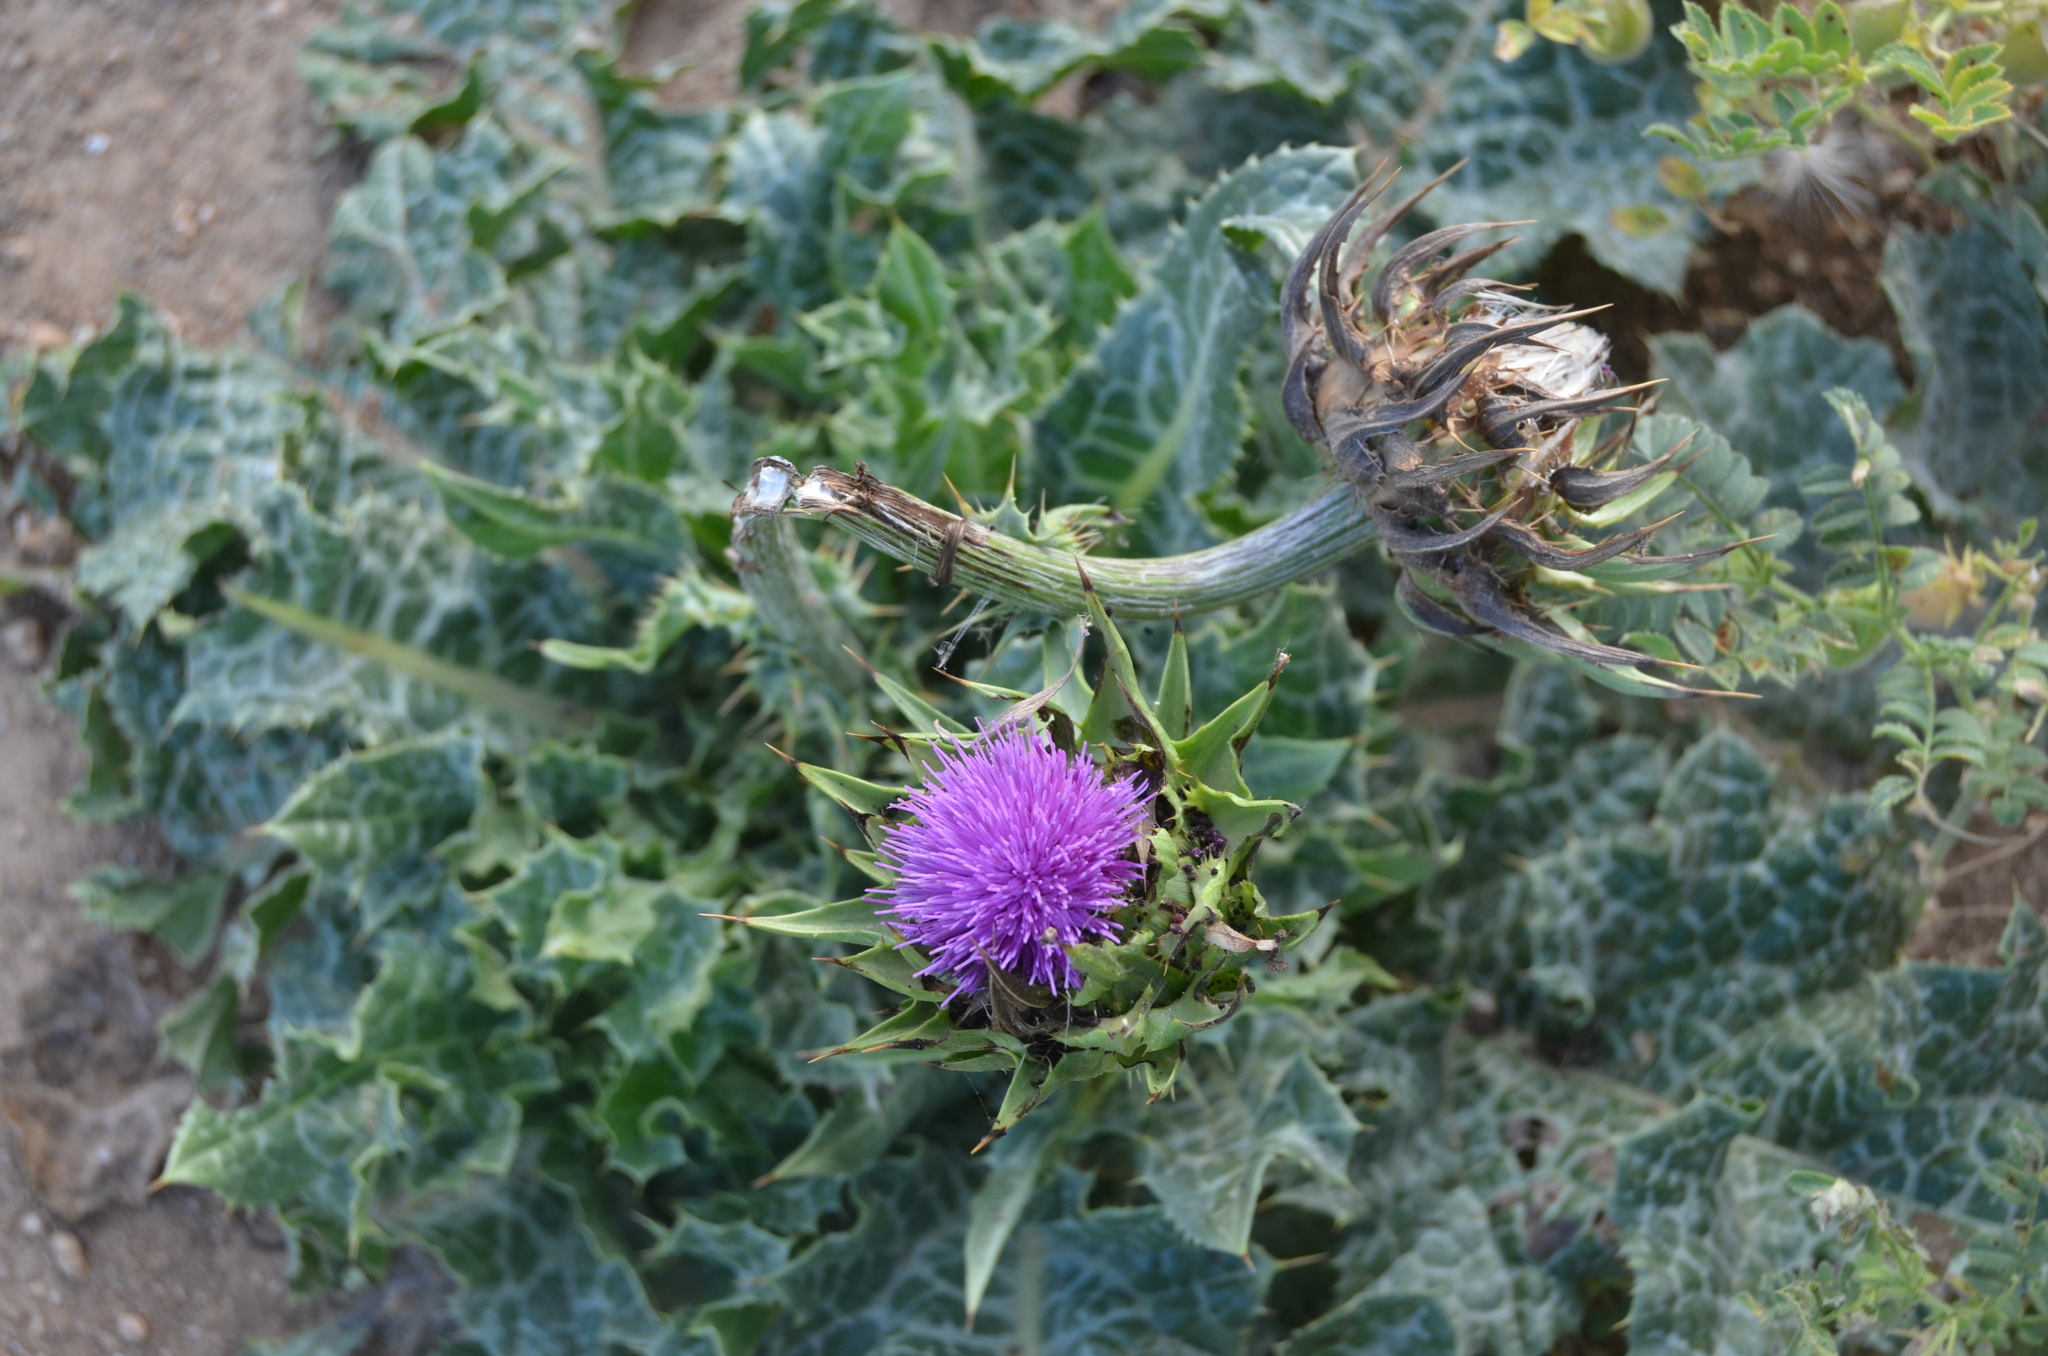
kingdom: Plantae
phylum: Tracheophyta
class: Magnoliopsida
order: Asterales
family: Asteraceae
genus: Silybum
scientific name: Silybum marianum
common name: Milk thistle
